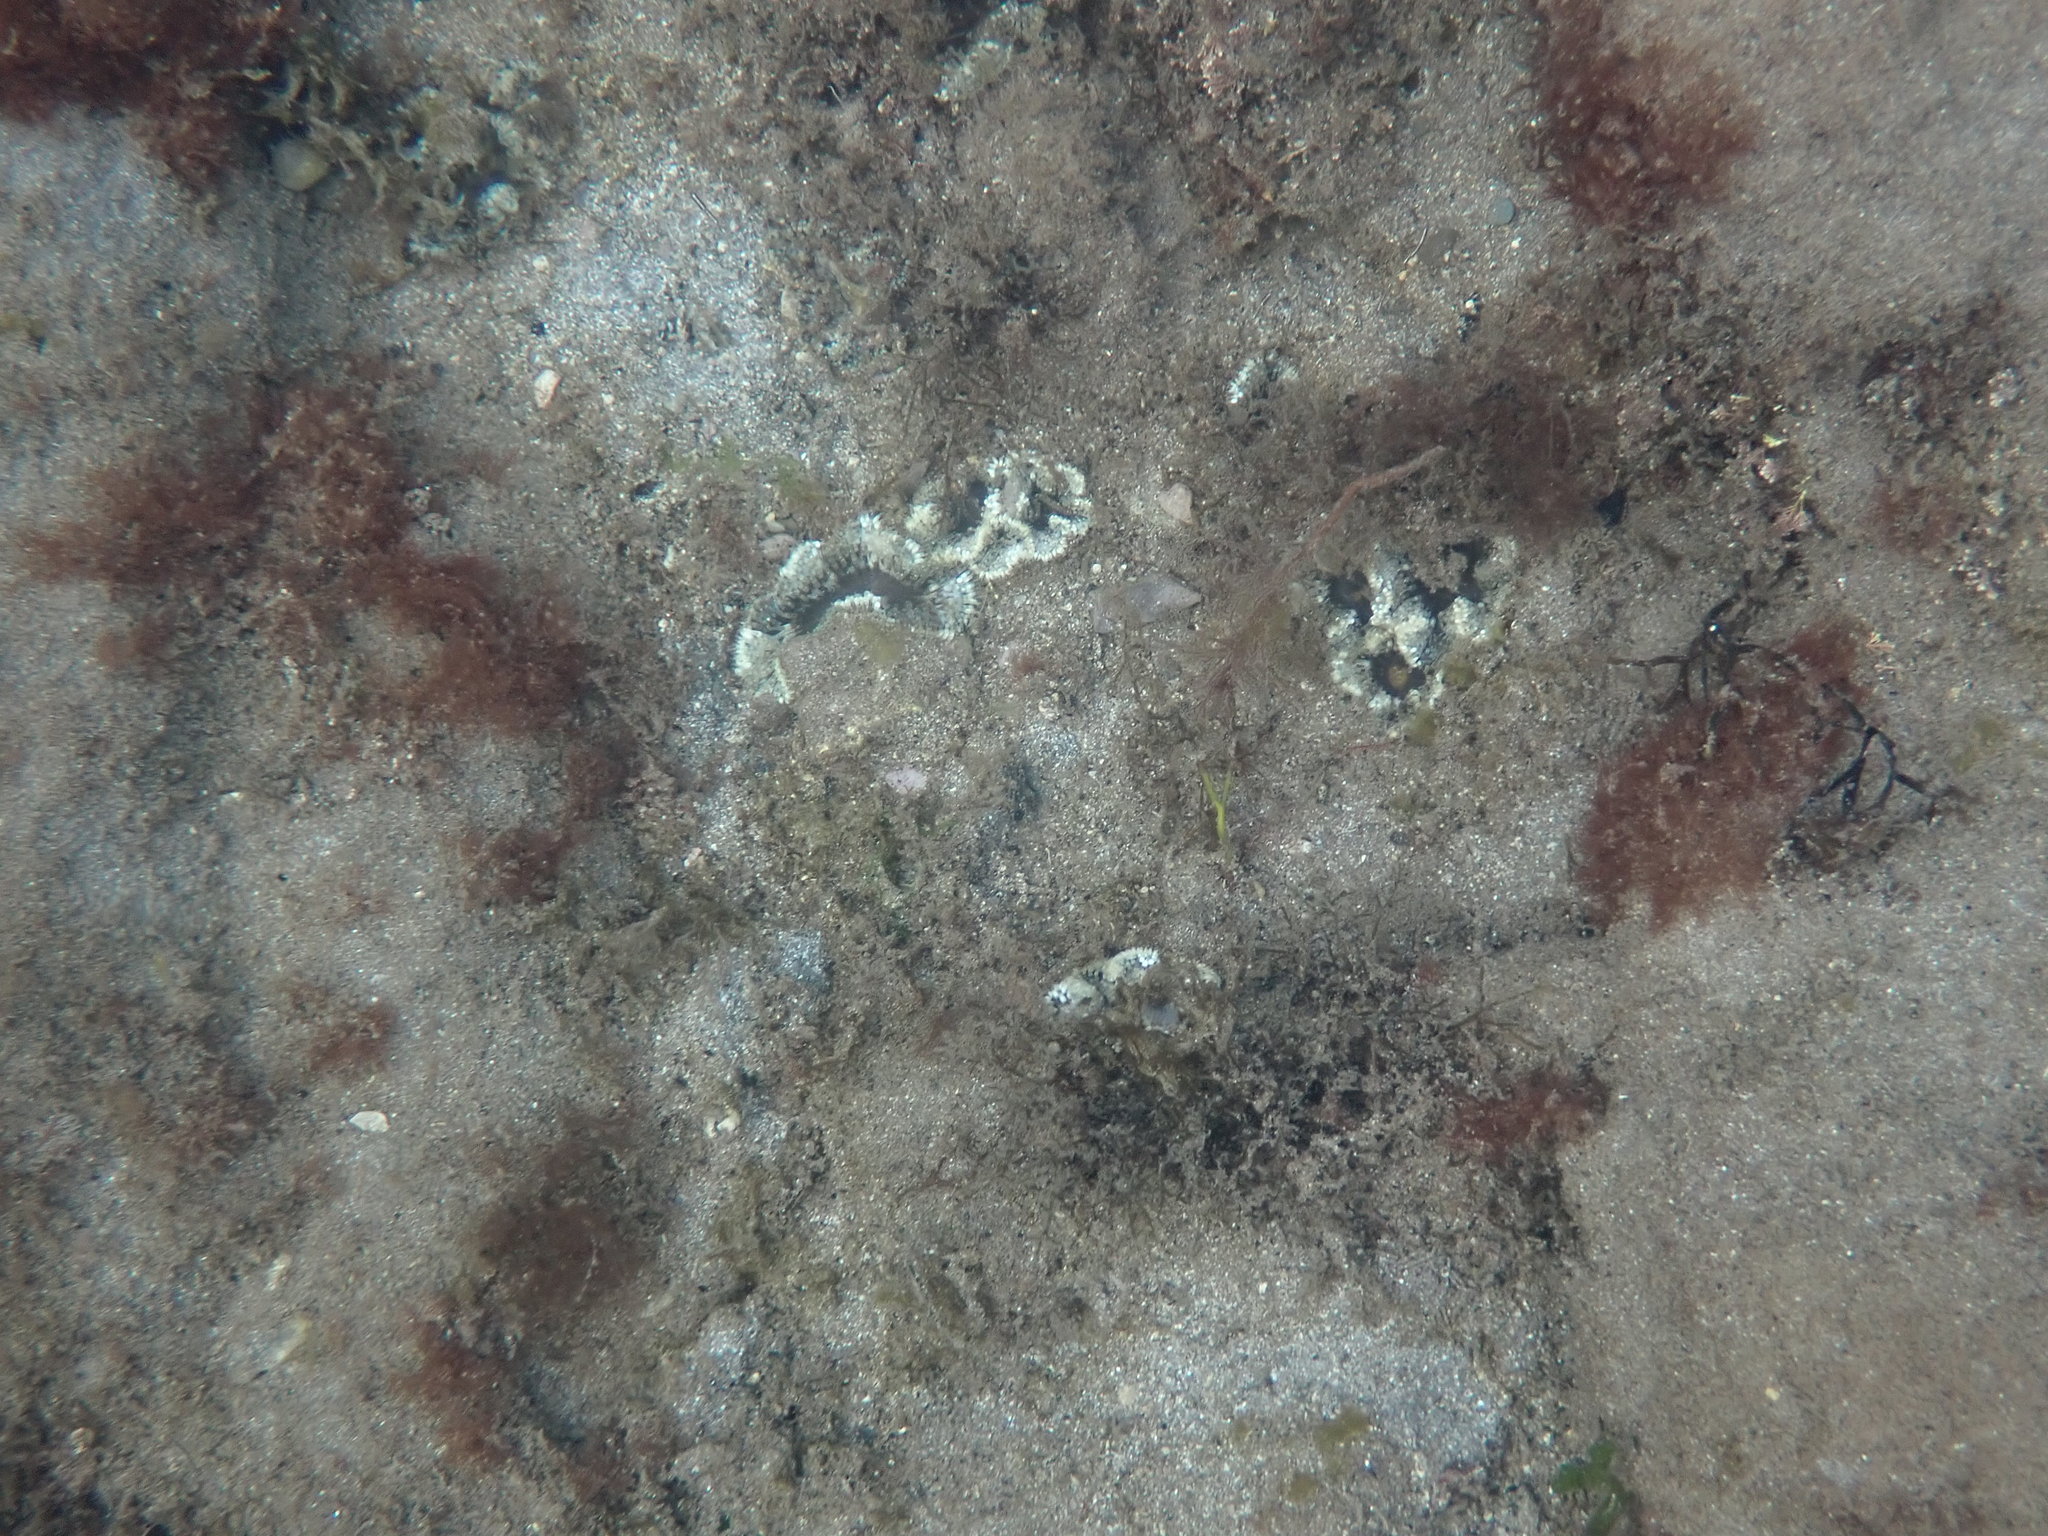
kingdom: Animalia
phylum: Cnidaria
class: Anthozoa
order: Actiniaria
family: Sagartiidae
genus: Cereus
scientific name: Cereus pedunculatus
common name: Daisy anemone
